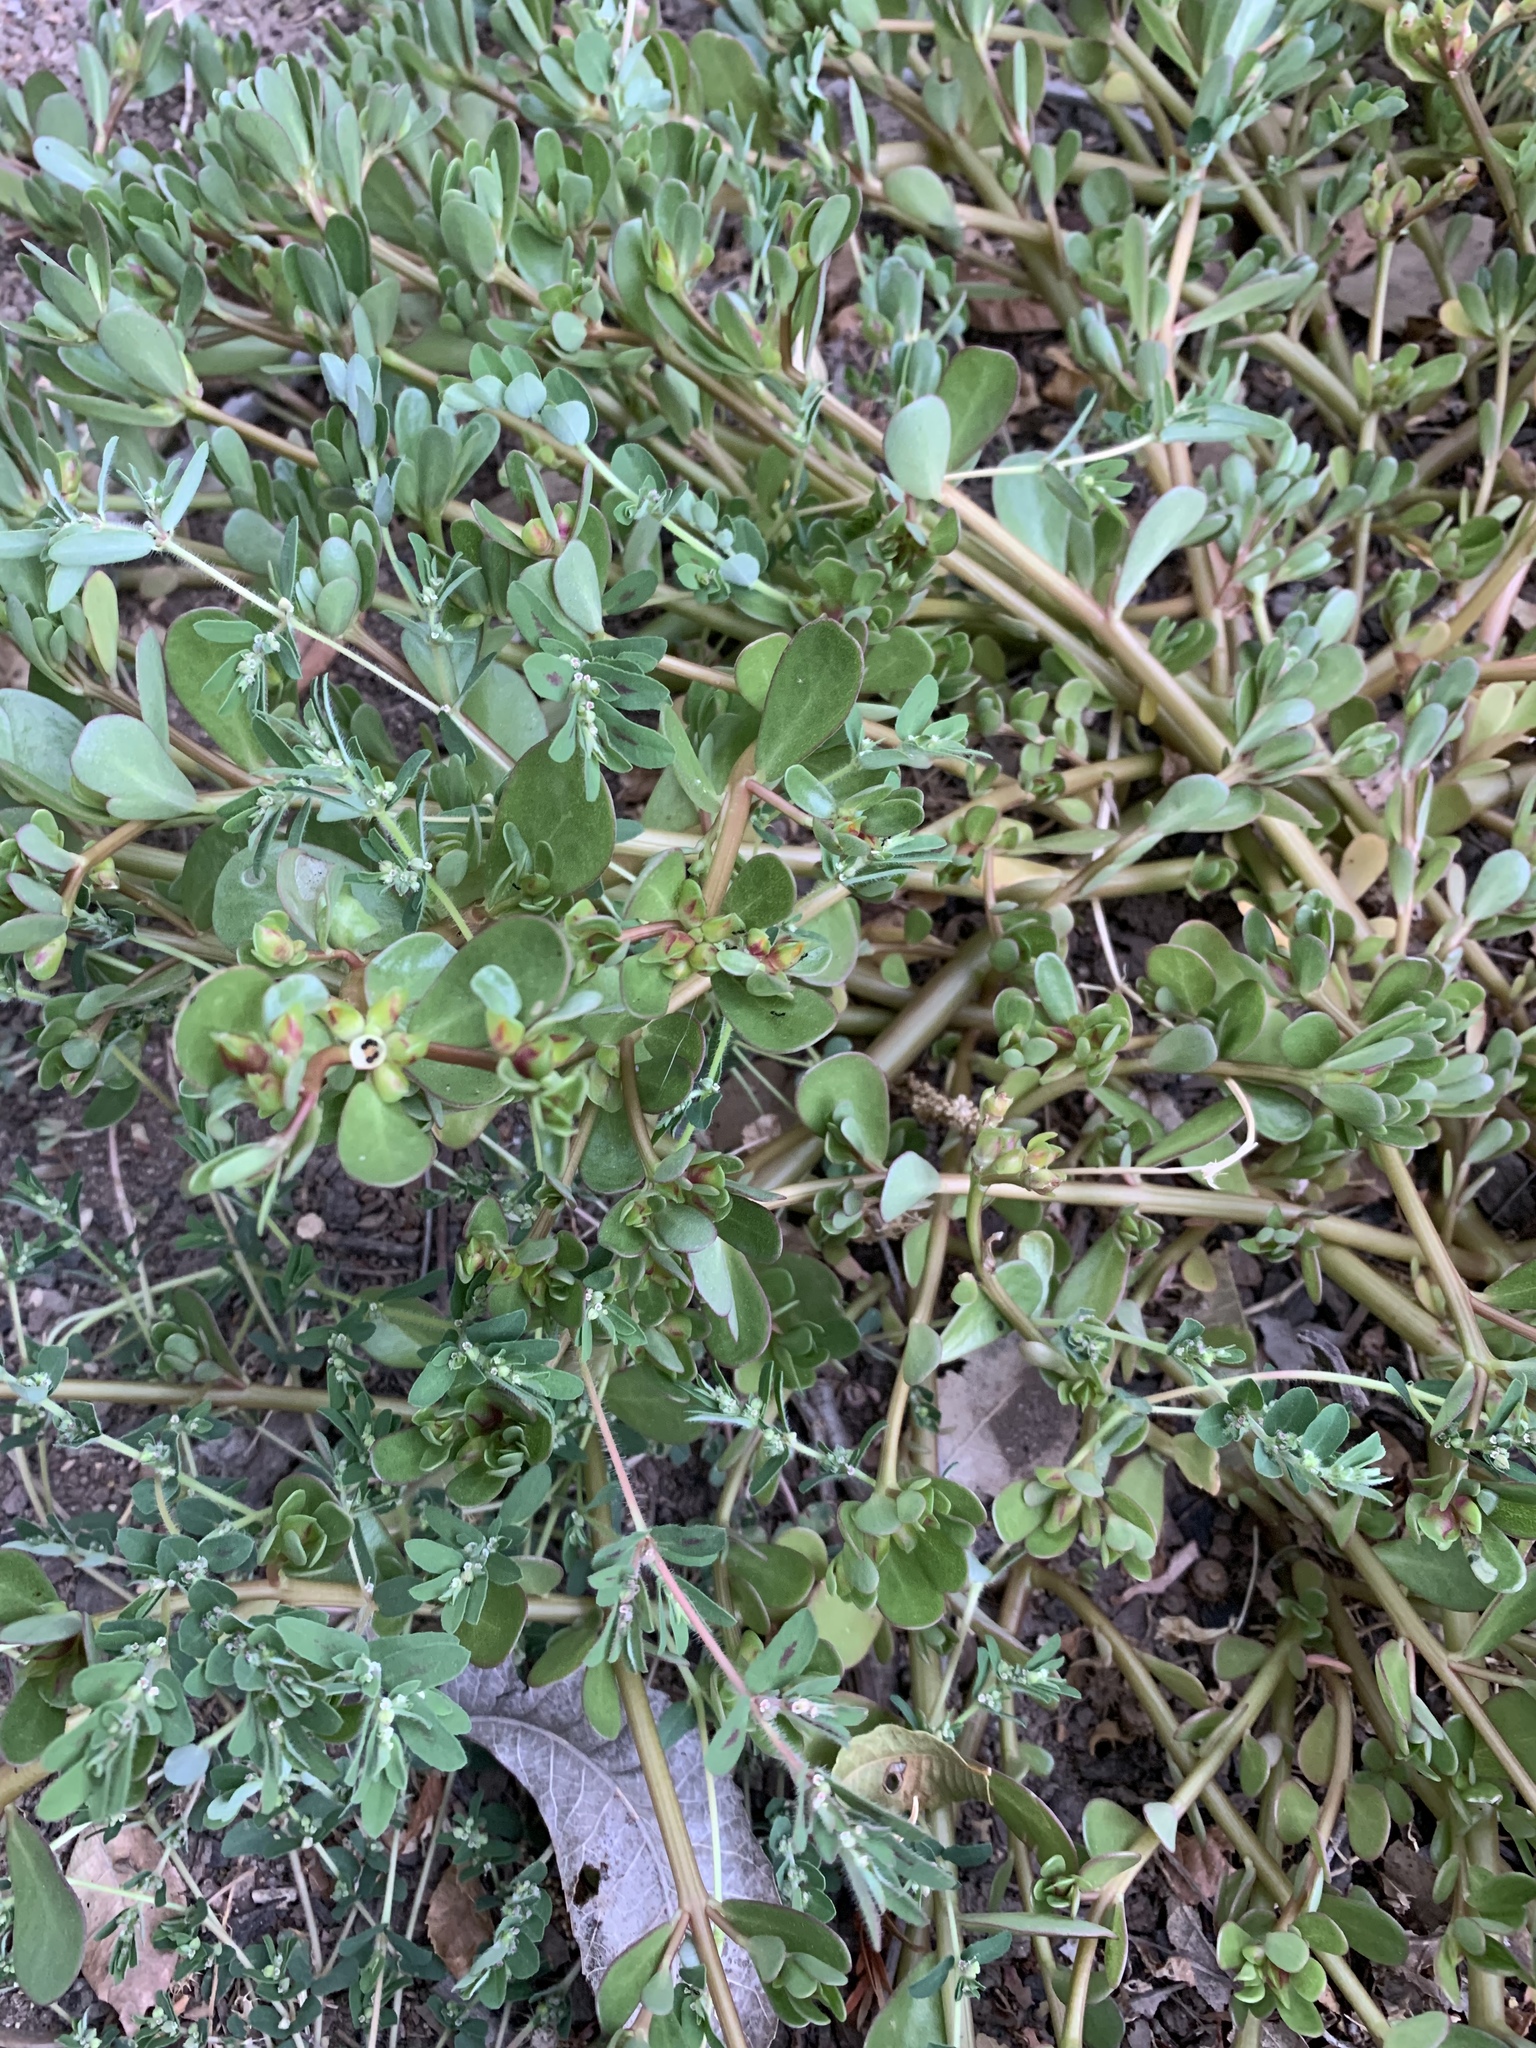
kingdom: Plantae
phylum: Tracheophyta
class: Magnoliopsida
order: Caryophyllales
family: Portulacaceae
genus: Portulaca
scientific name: Portulaca oleracea
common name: Common purslane
